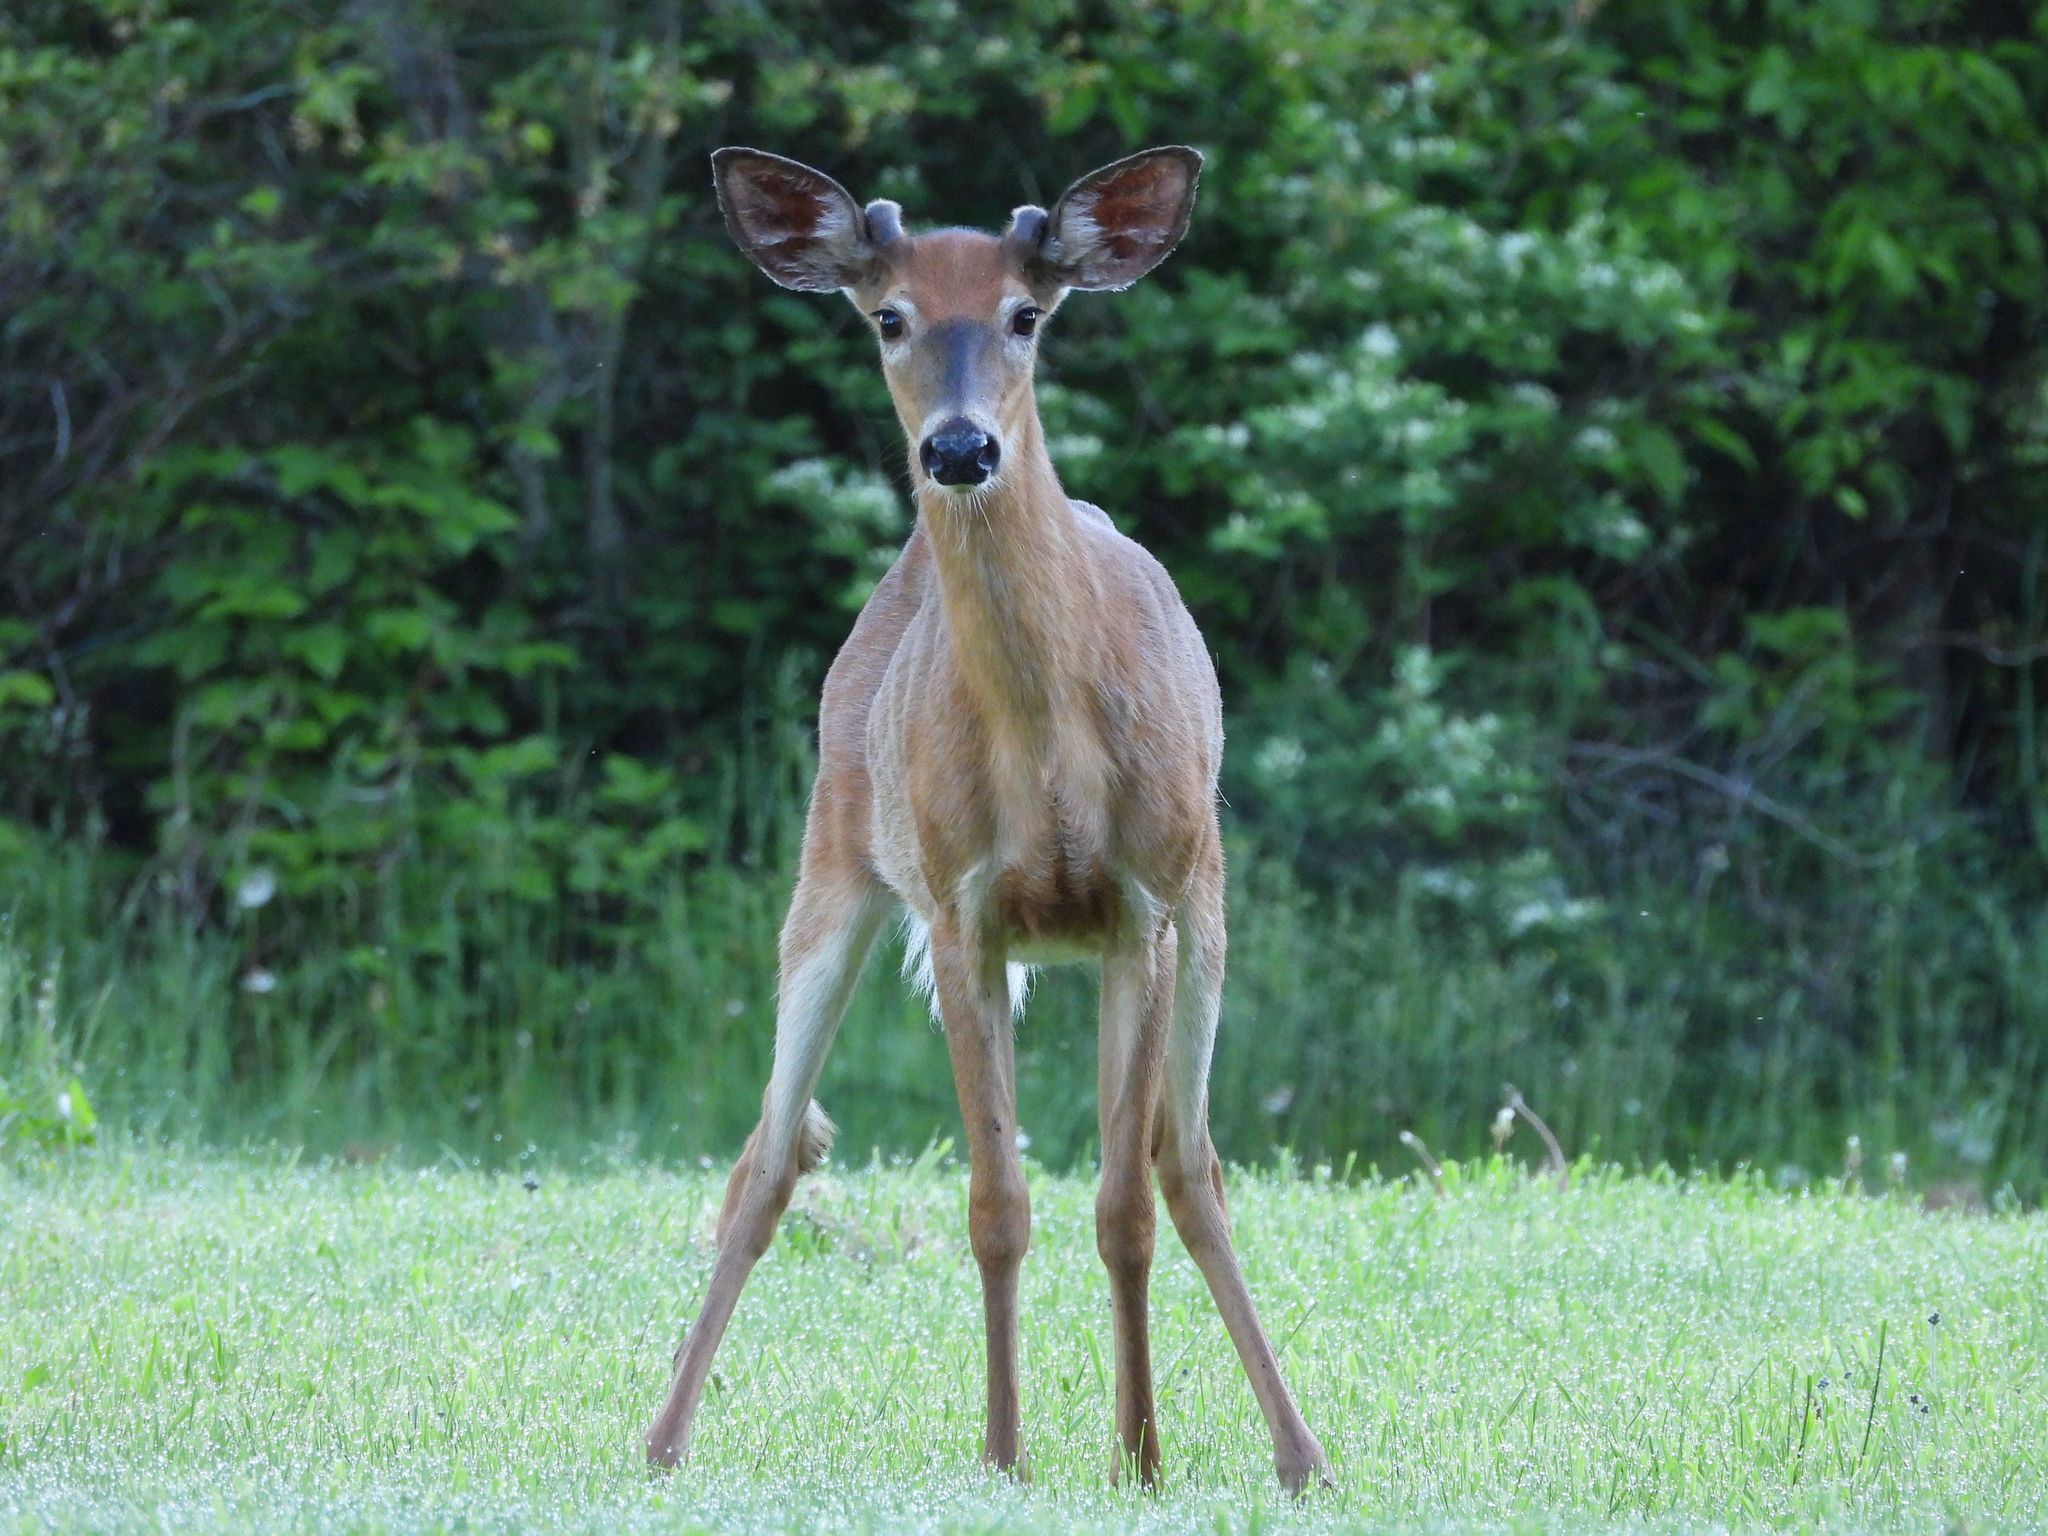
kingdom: Animalia
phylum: Chordata
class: Mammalia
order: Artiodactyla
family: Cervidae
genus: Odocoileus
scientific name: Odocoileus virginianus
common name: White-tailed deer
